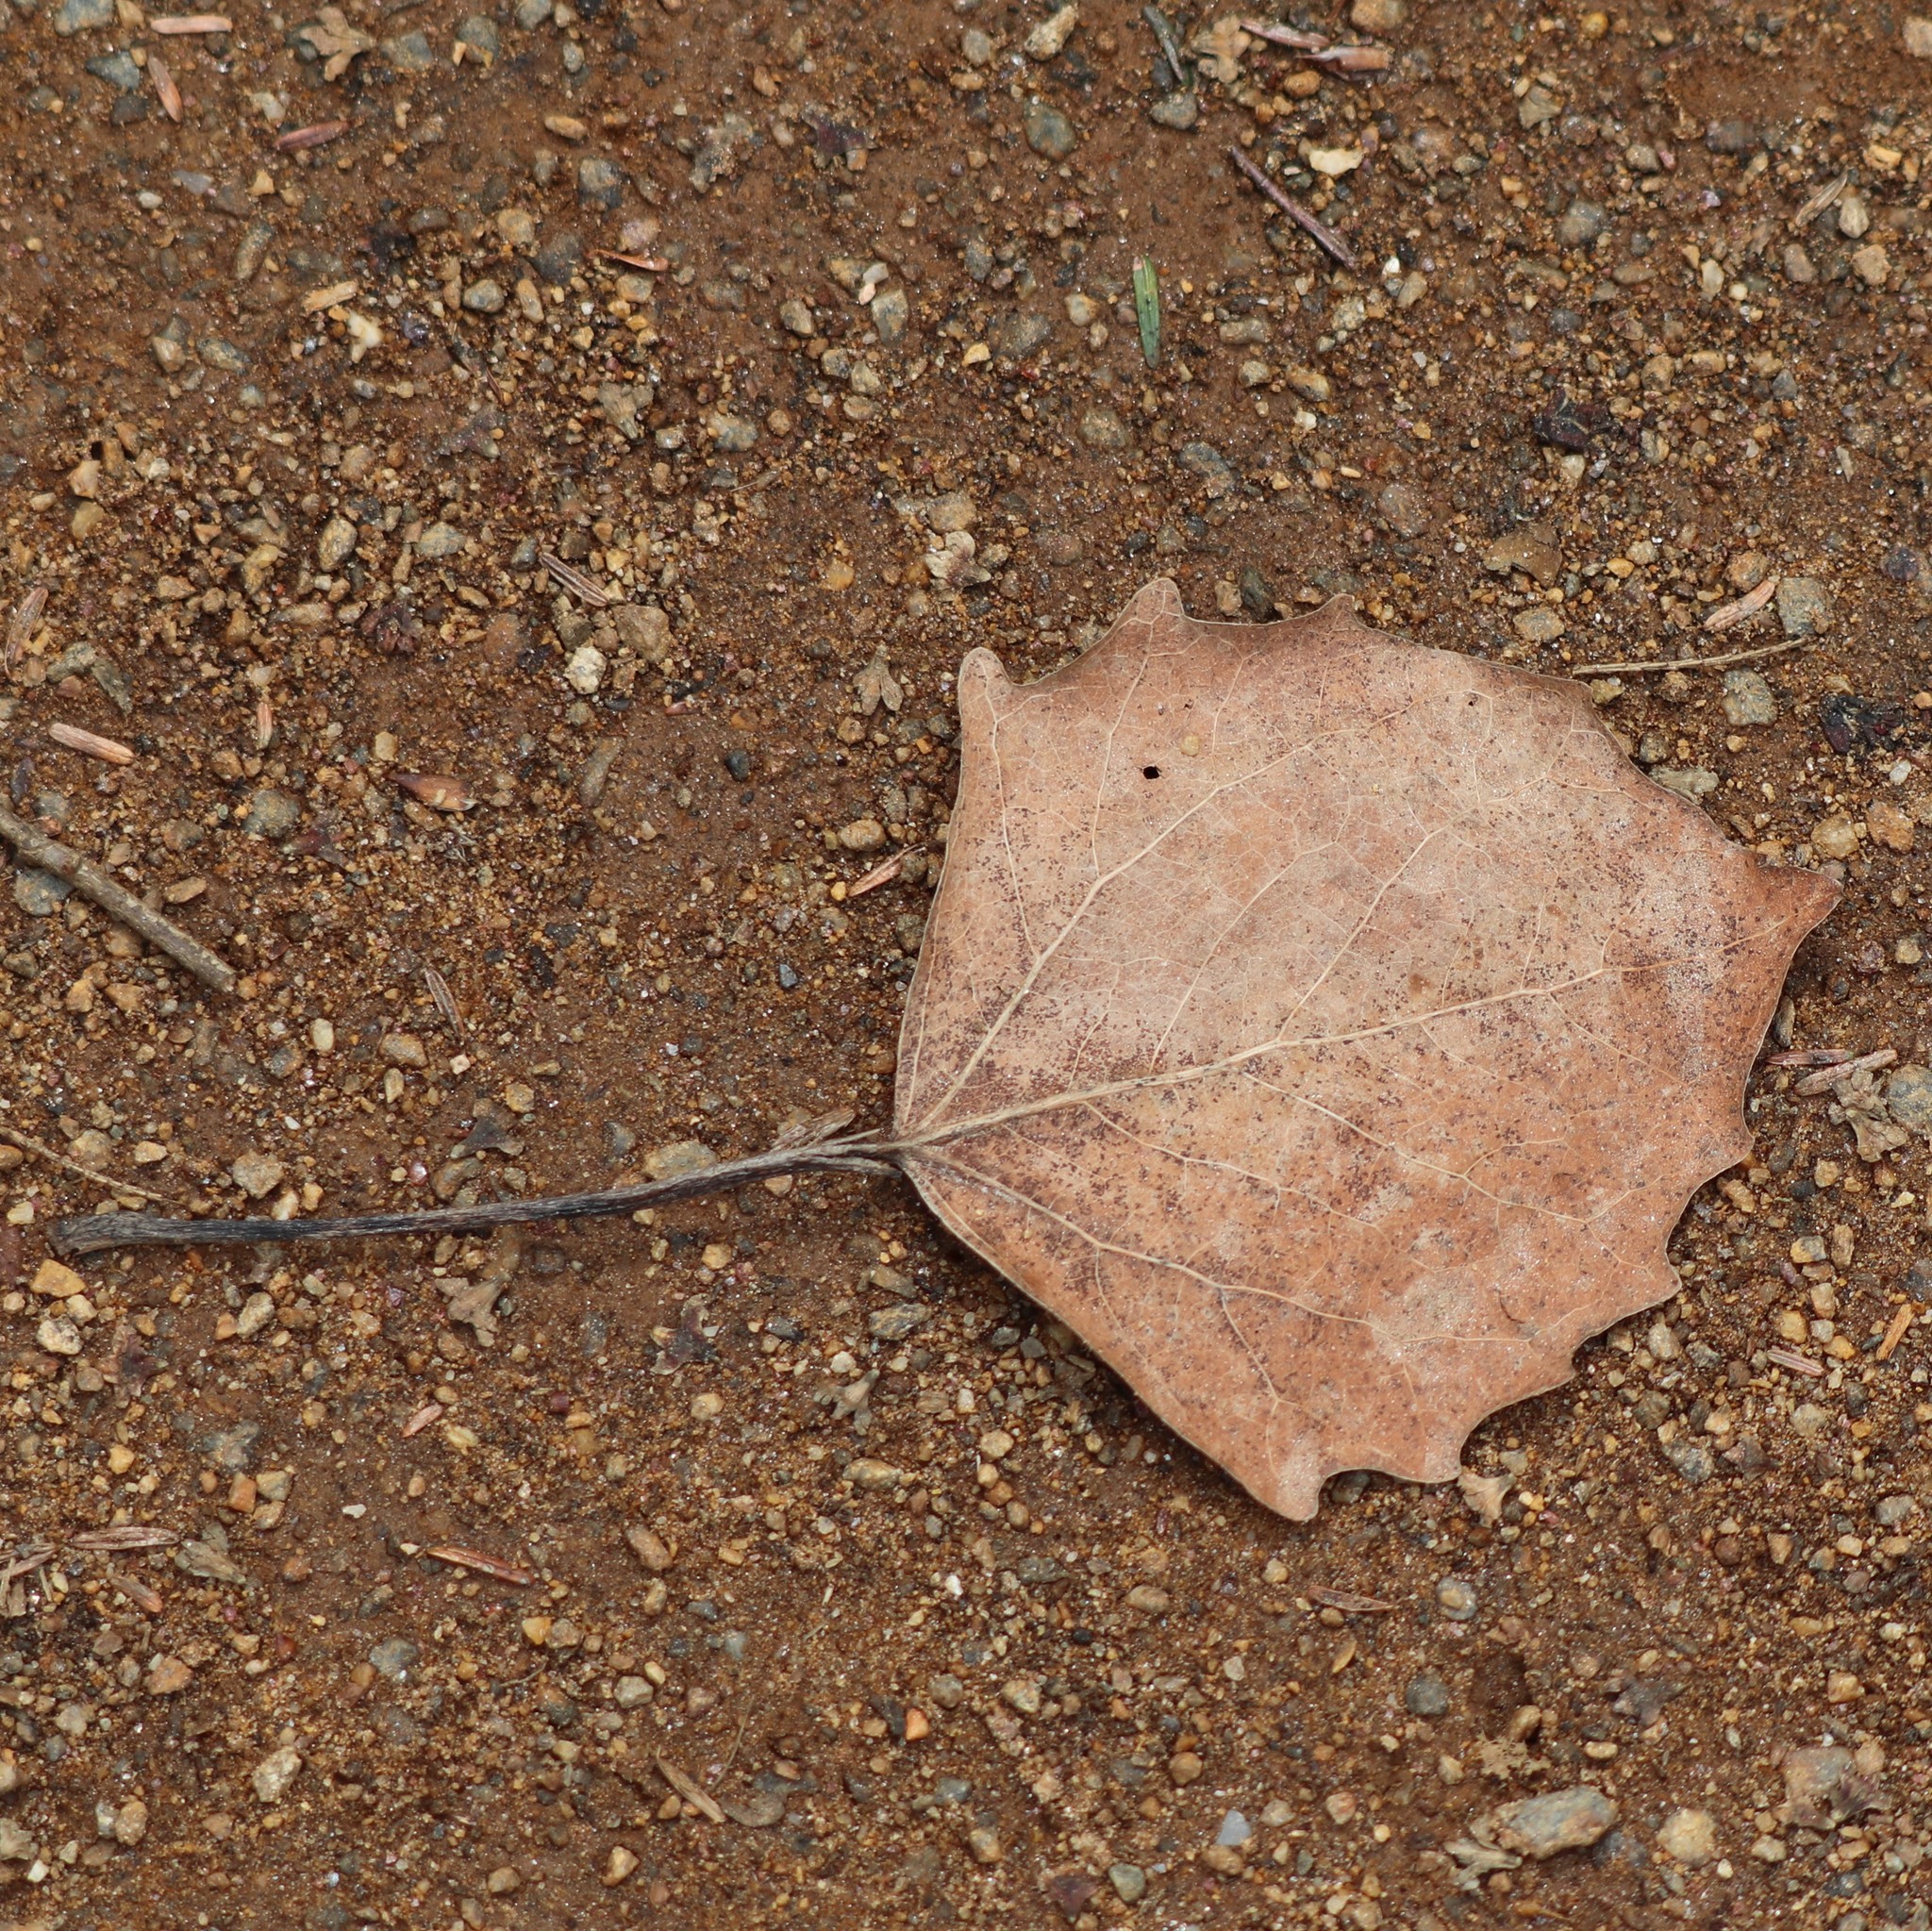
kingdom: Plantae
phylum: Tracheophyta
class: Magnoliopsida
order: Malpighiales
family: Salicaceae
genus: Populus
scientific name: Populus grandidentata
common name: Bigtooth aspen
